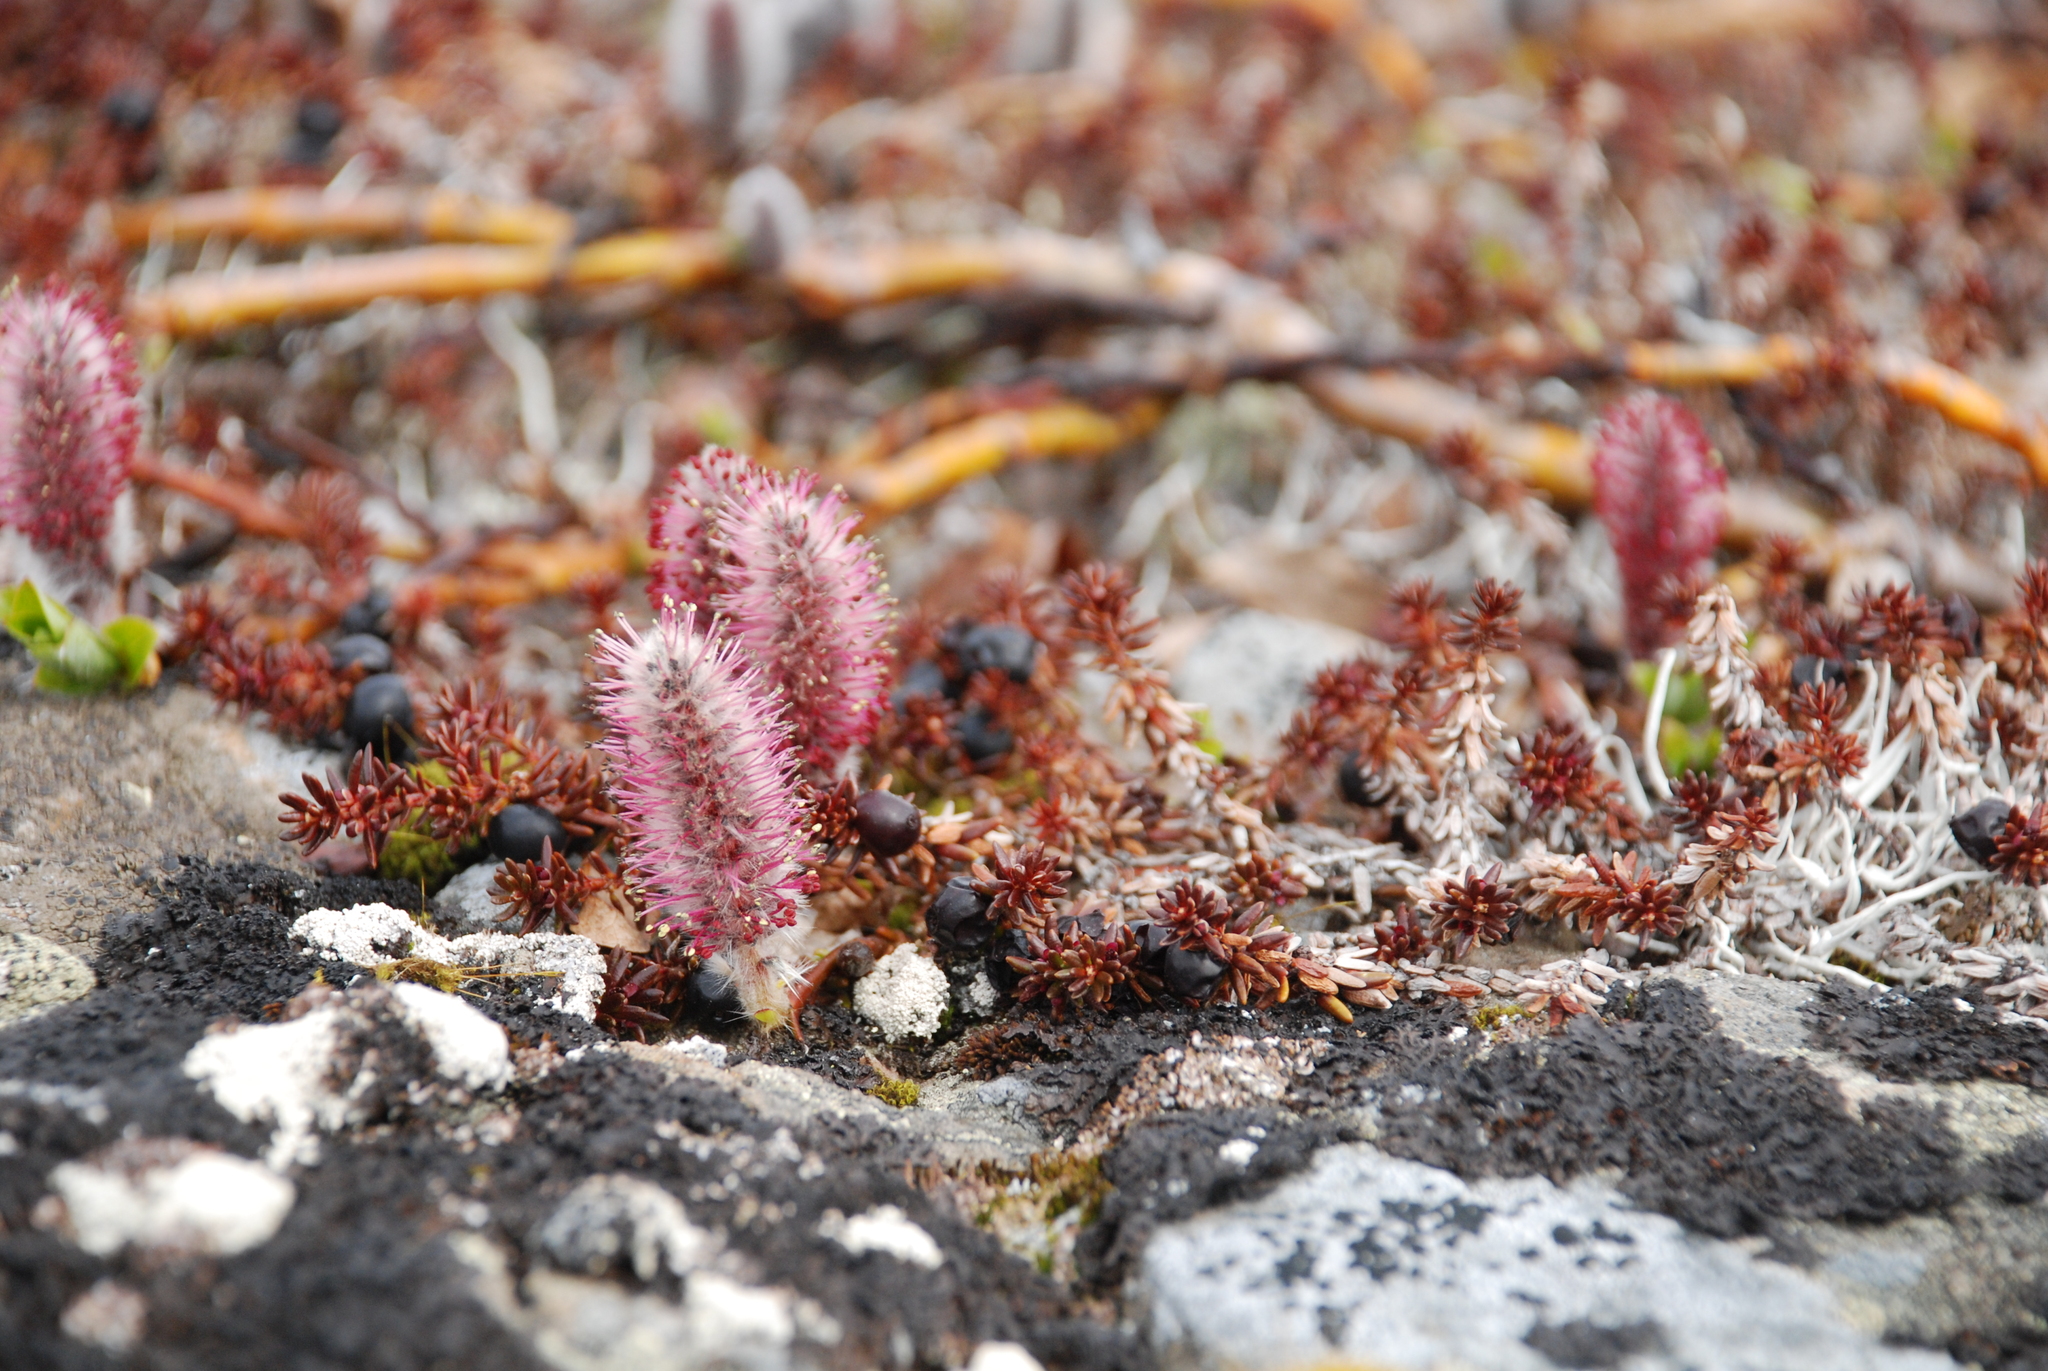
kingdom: Plantae
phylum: Tracheophyta
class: Magnoliopsida
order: Malpighiales
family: Salicaceae
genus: Salix
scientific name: Salix arctica
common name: Arctic willow
